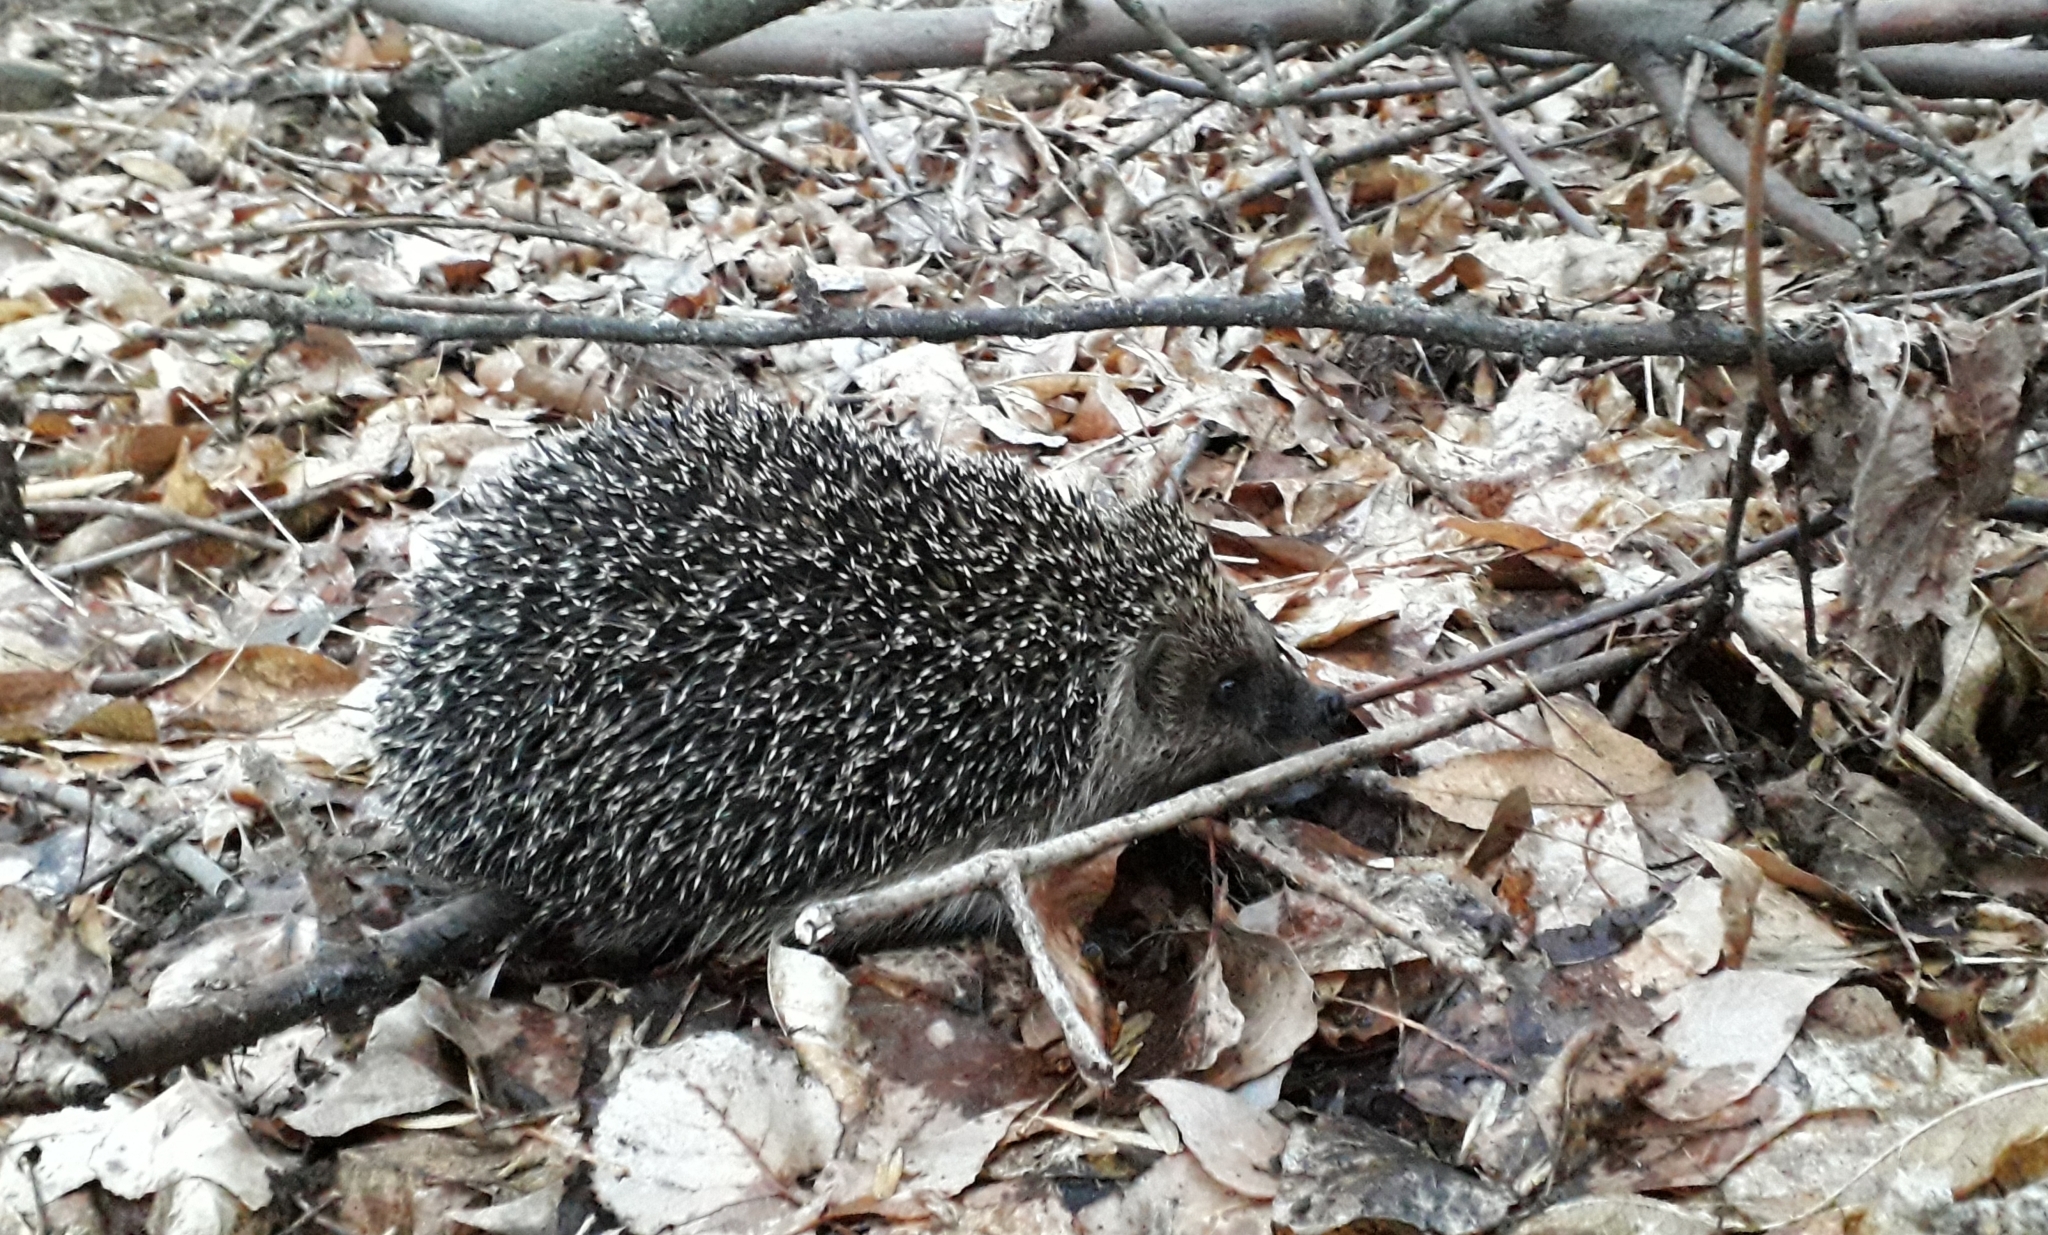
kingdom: Animalia
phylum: Chordata
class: Mammalia
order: Erinaceomorpha
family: Erinaceidae
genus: Erinaceus
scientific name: Erinaceus roumanicus
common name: Northern white-breasted hedgehog
